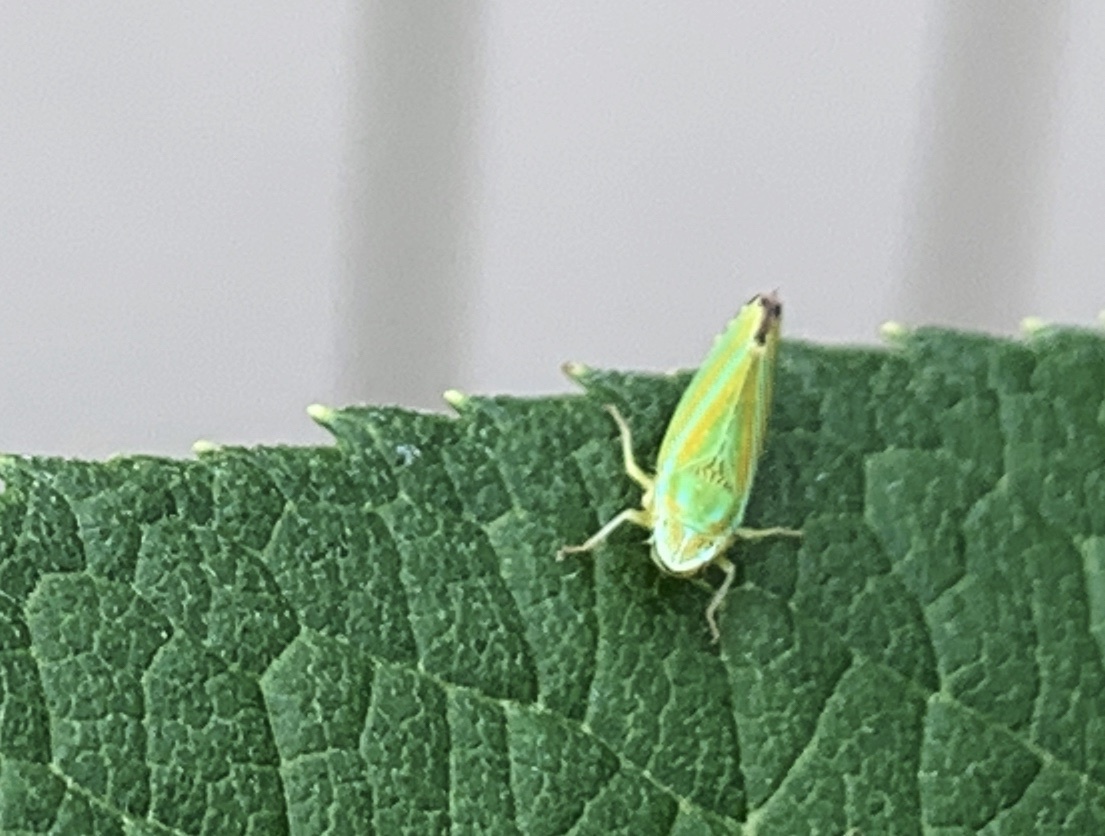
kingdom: Animalia
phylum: Arthropoda
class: Insecta
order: Hemiptera
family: Cicadellidae
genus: Graphocephala
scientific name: Graphocephala versuta
